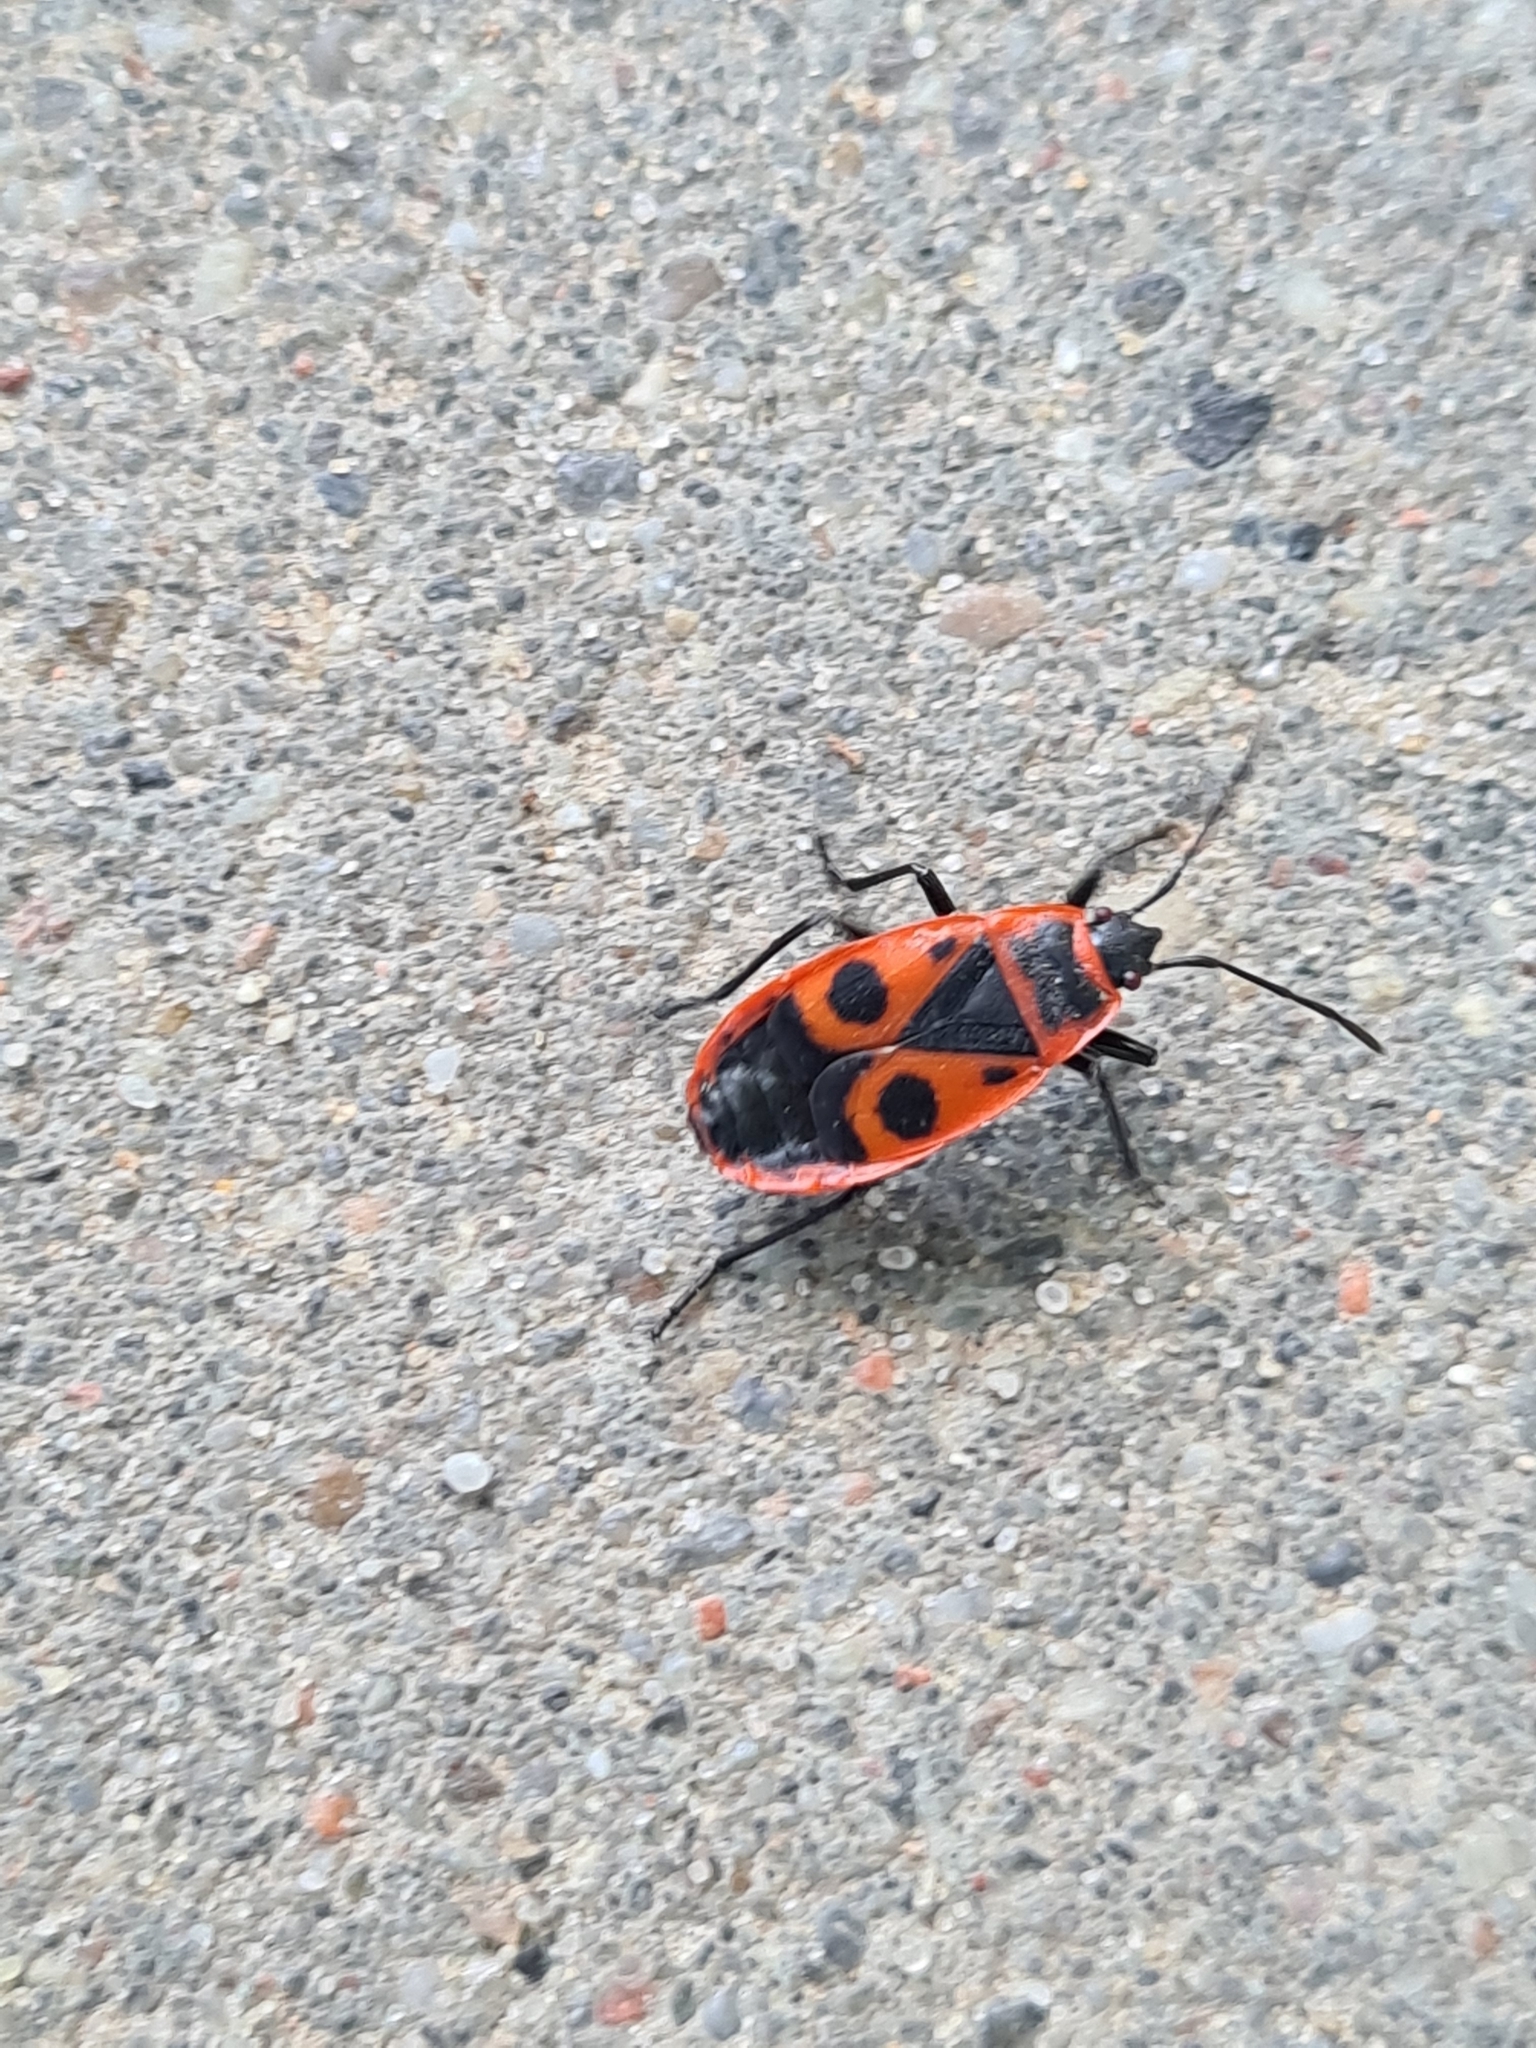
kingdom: Animalia
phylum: Arthropoda
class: Insecta
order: Hemiptera
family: Pyrrhocoridae
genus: Pyrrhocoris
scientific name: Pyrrhocoris apterus
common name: Firebug
